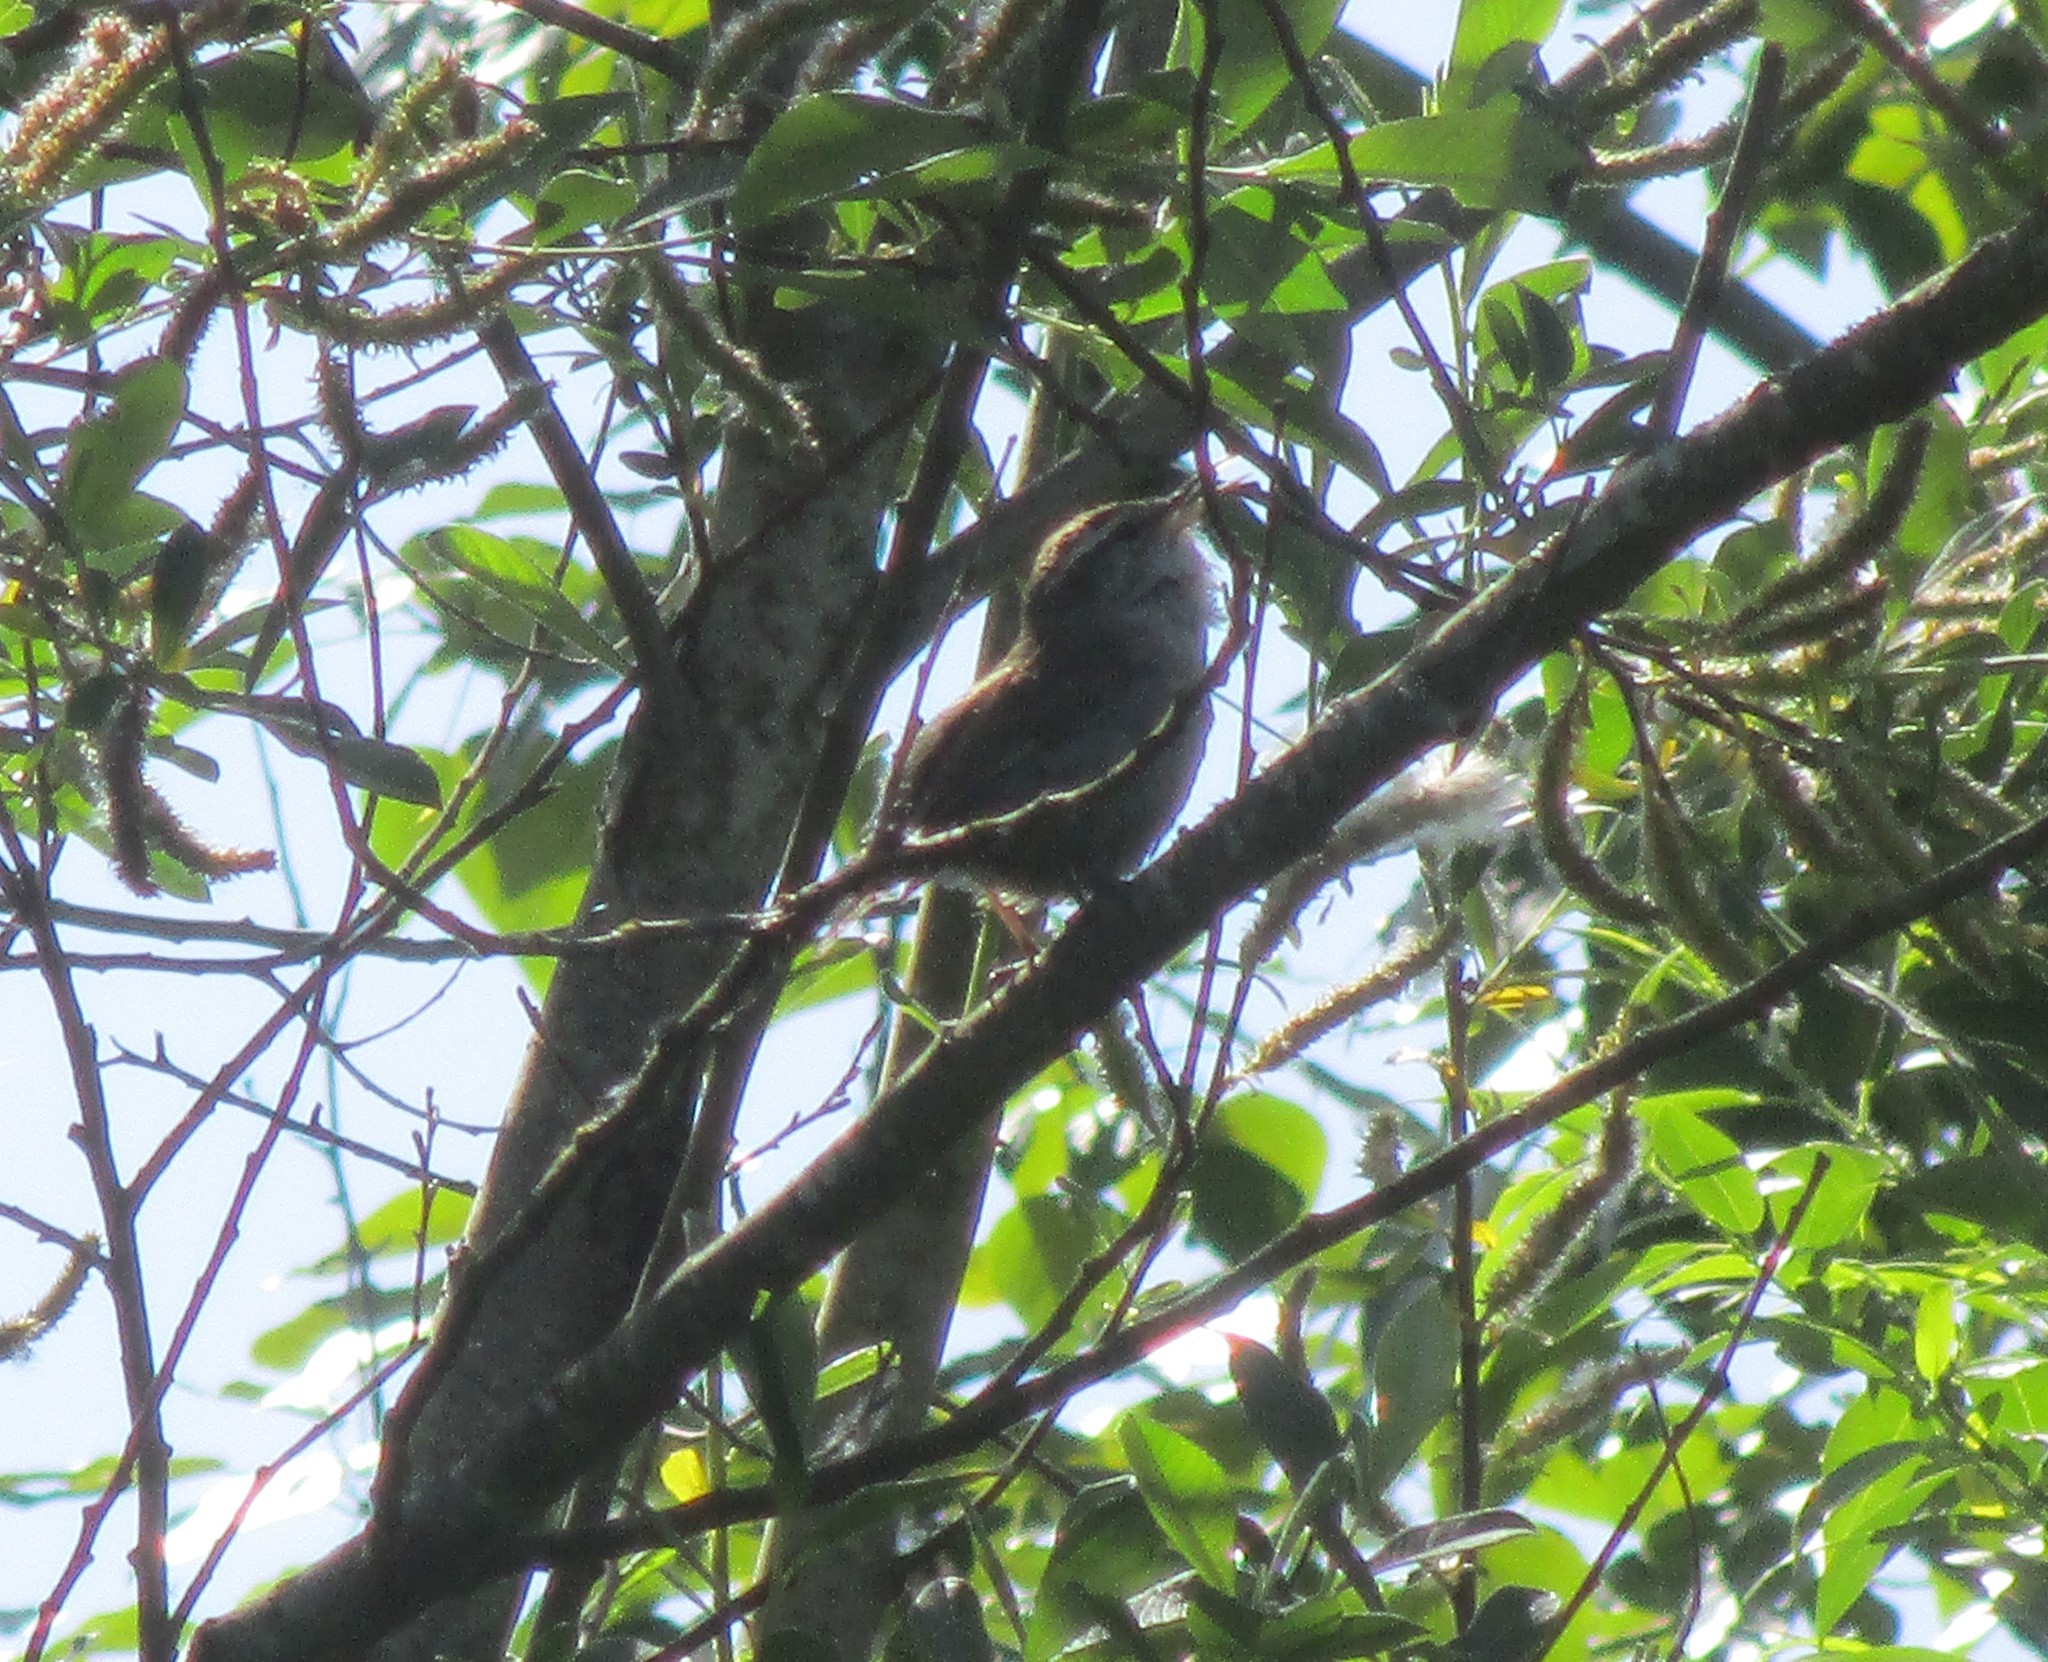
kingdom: Animalia
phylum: Chordata
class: Aves
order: Passeriformes
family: Troglodytidae
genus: Thryomanes
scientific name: Thryomanes bewickii
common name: Bewick's wren
